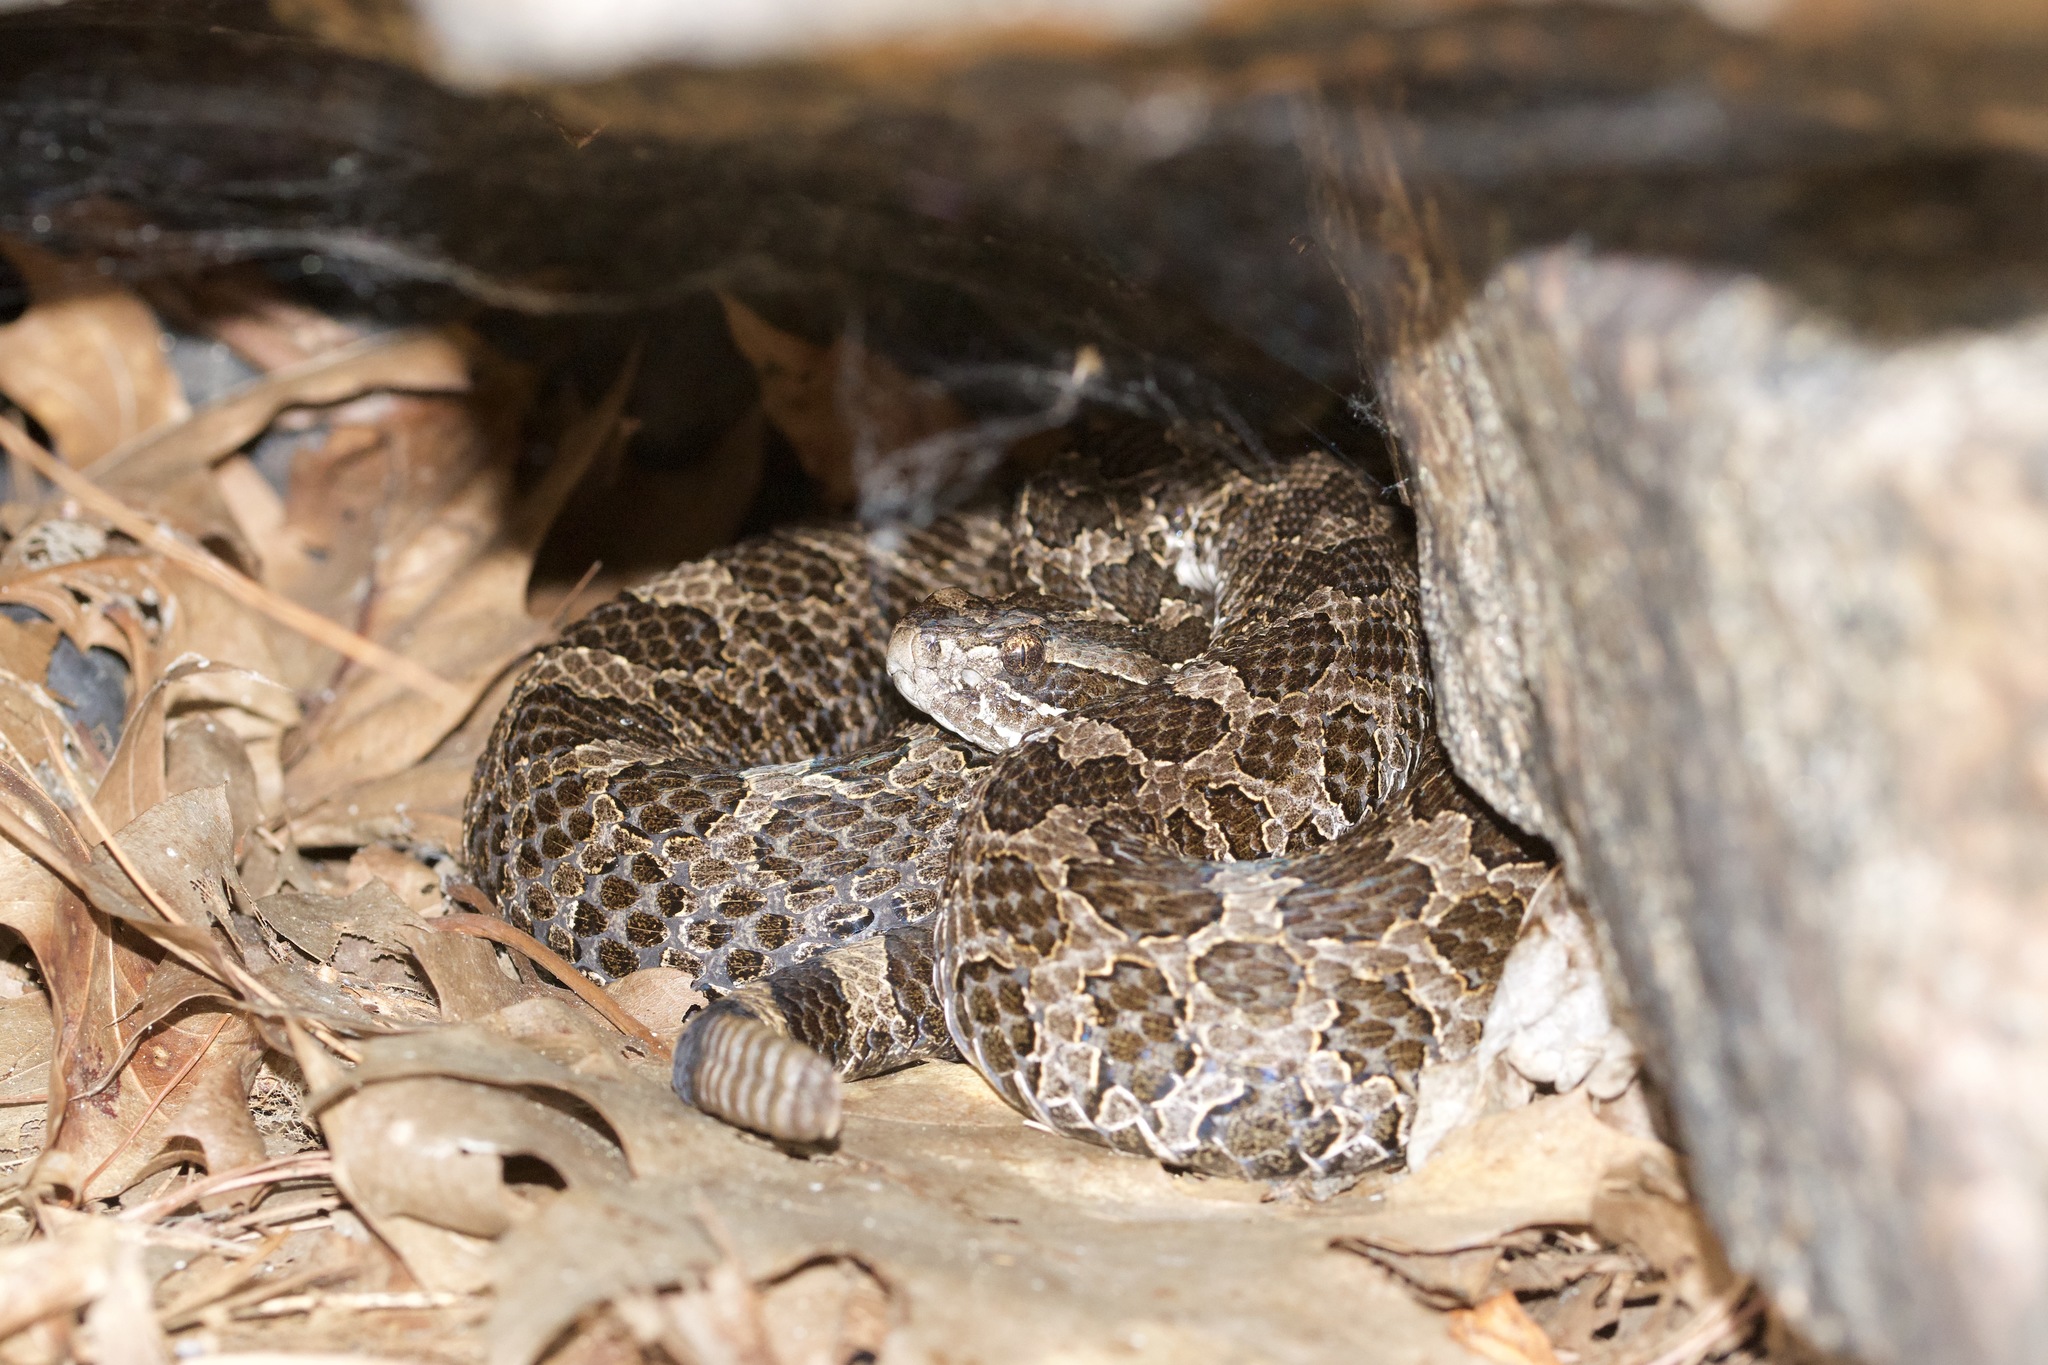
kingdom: Animalia
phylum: Chordata
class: Squamata
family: Viperidae
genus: Sistrurus
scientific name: Sistrurus catenatus
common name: Massasauga
